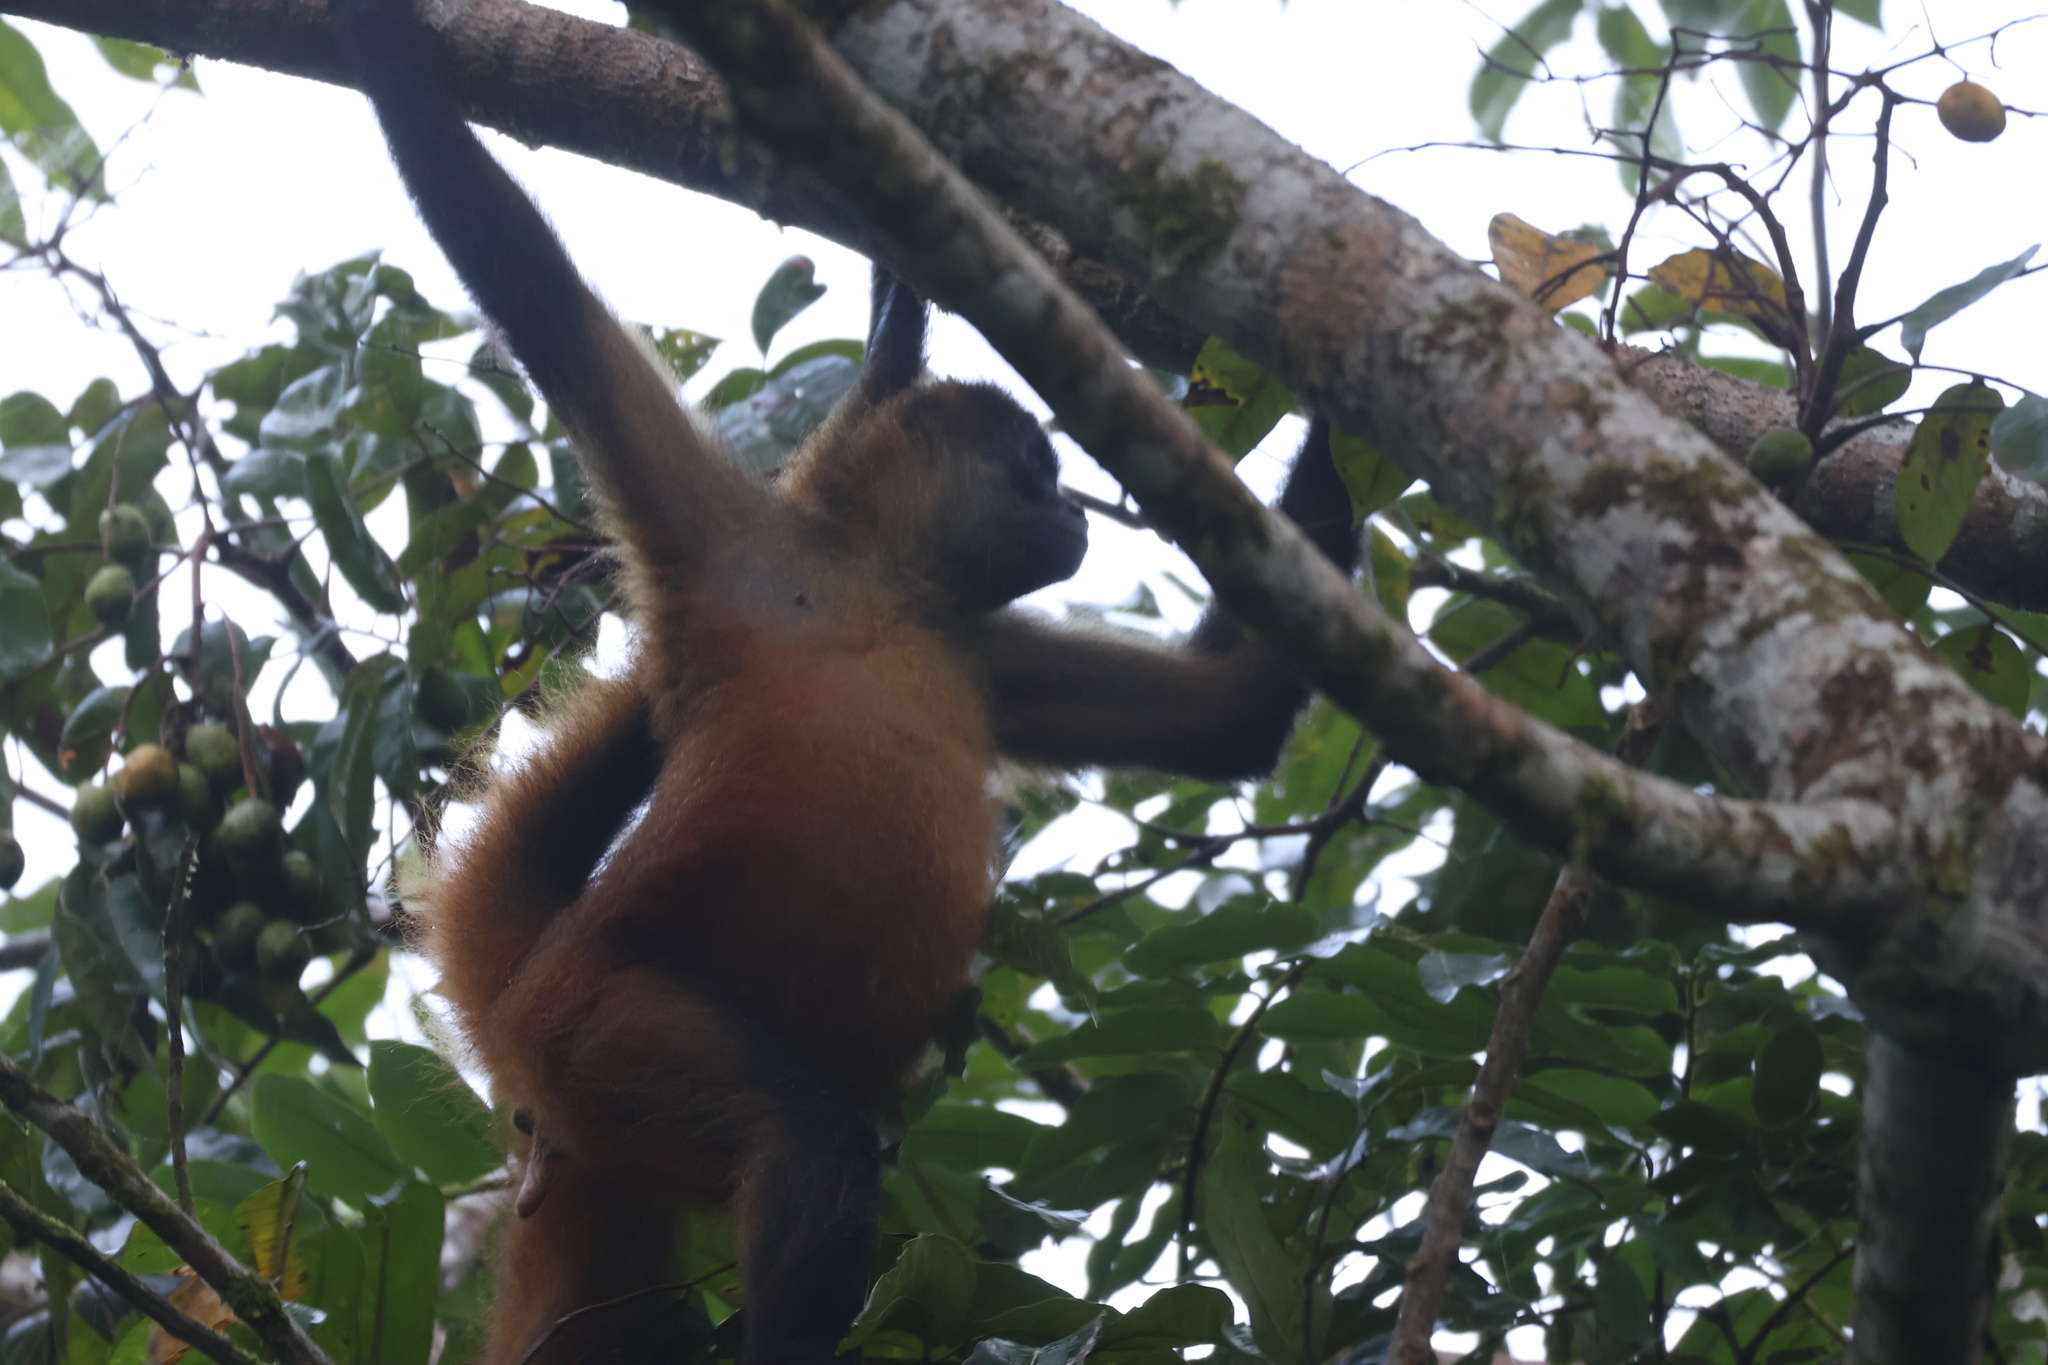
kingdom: Animalia
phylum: Chordata
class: Mammalia
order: Primates
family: Atelidae
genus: Ateles
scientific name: Ateles geoffroyi
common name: Black-handed spider monkey
